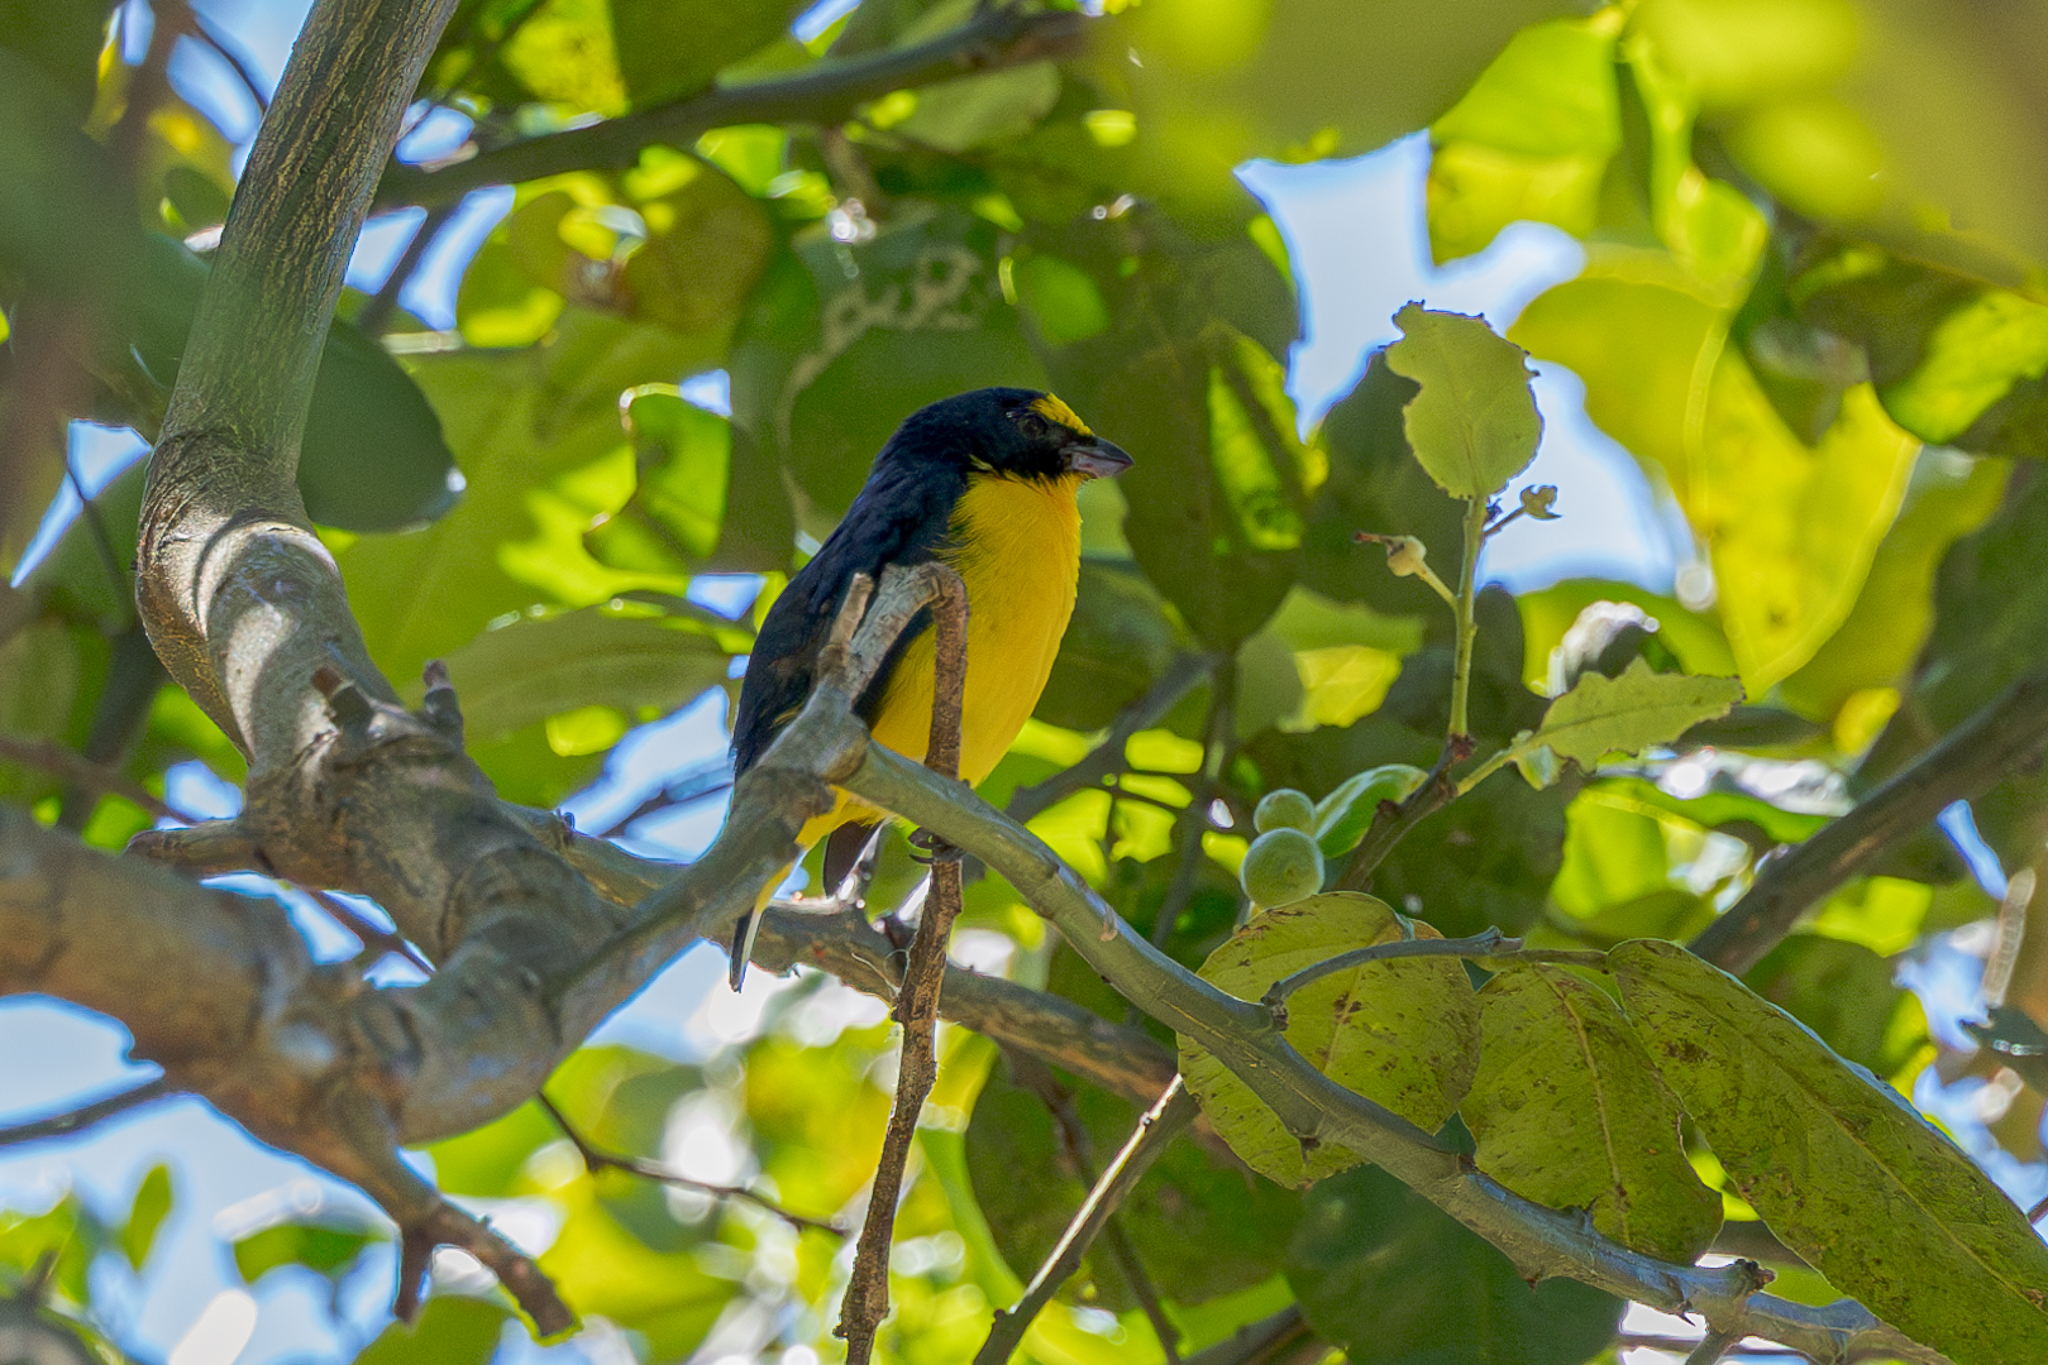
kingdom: Animalia
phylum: Chordata
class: Aves
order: Passeriformes
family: Fringillidae
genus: Euphonia
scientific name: Euphonia hirundinacea
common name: Yellow-throated euphonia
